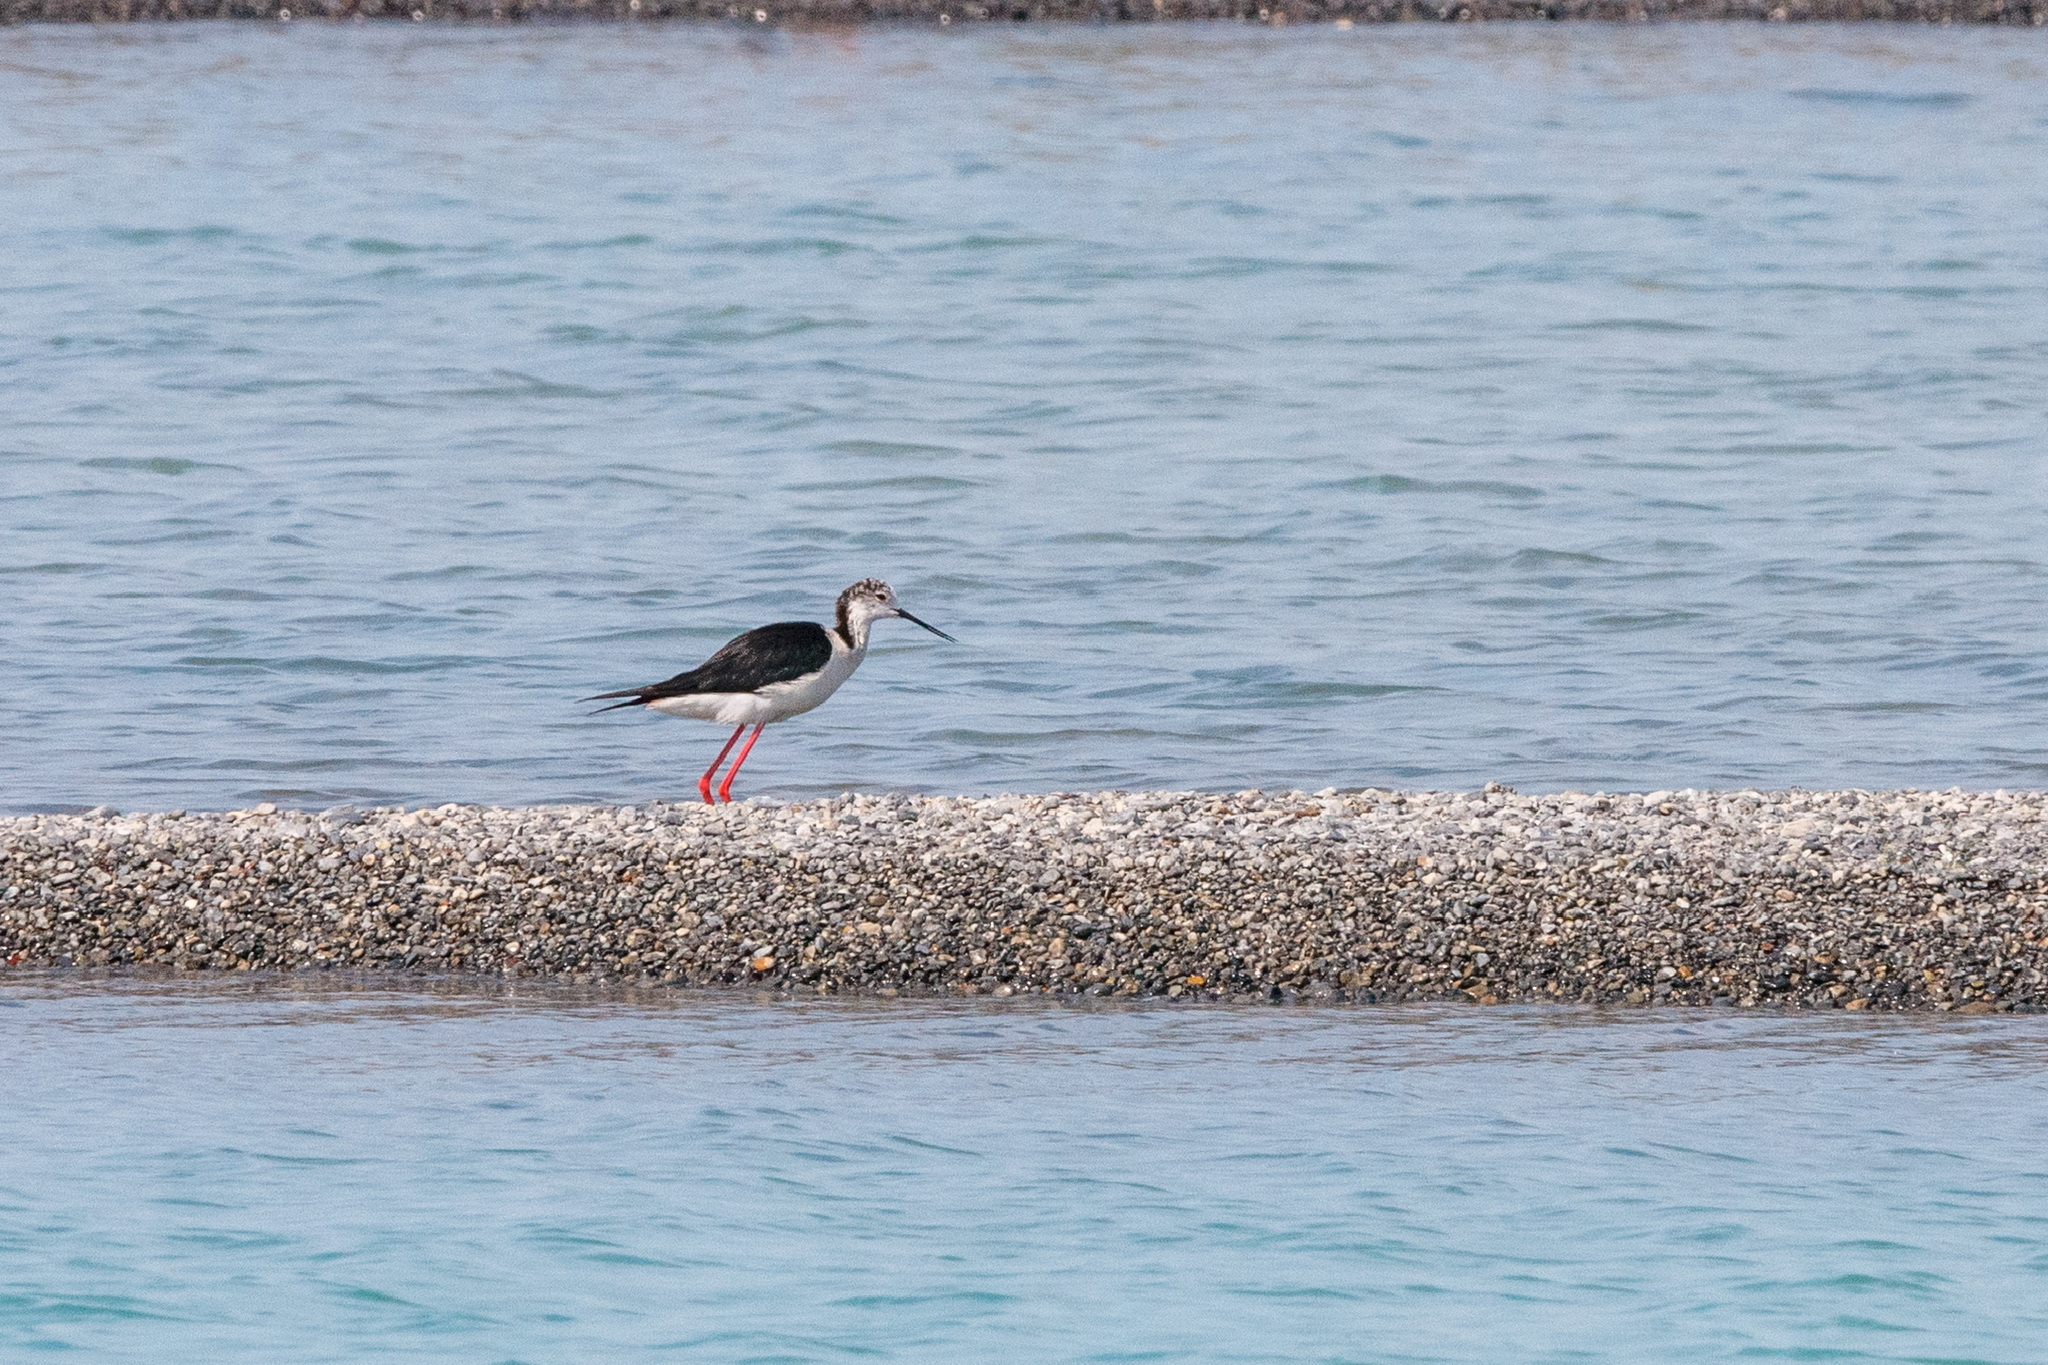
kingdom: Animalia
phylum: Chordata
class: Aves
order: Charadriiformes
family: Recurvirostridae
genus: Himantopus
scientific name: Himantopus himantopus
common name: Black-winged stilt
